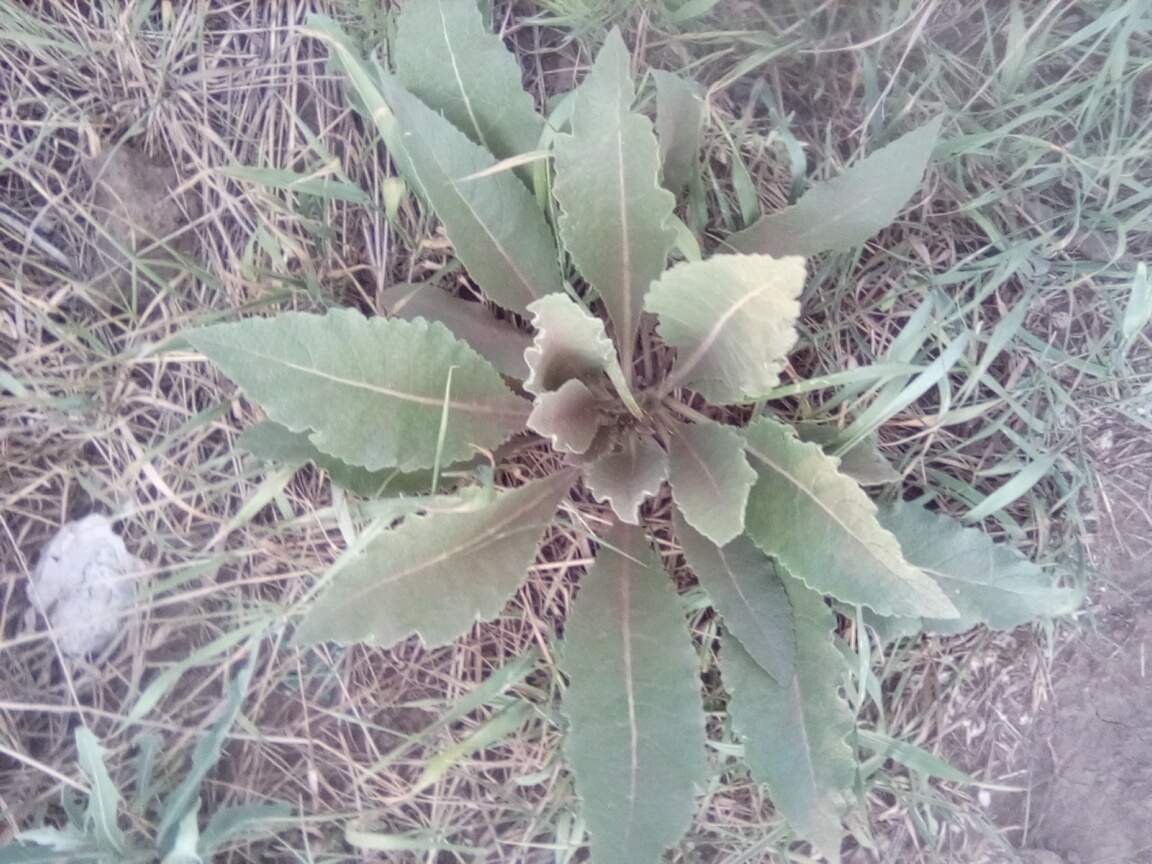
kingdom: Plantae
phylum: Tracheophyta
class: Magnoliopsida
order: Lamiales
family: Scrophulariaceae
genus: Verbascum
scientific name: Verbascum lychnitis
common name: White mullein
